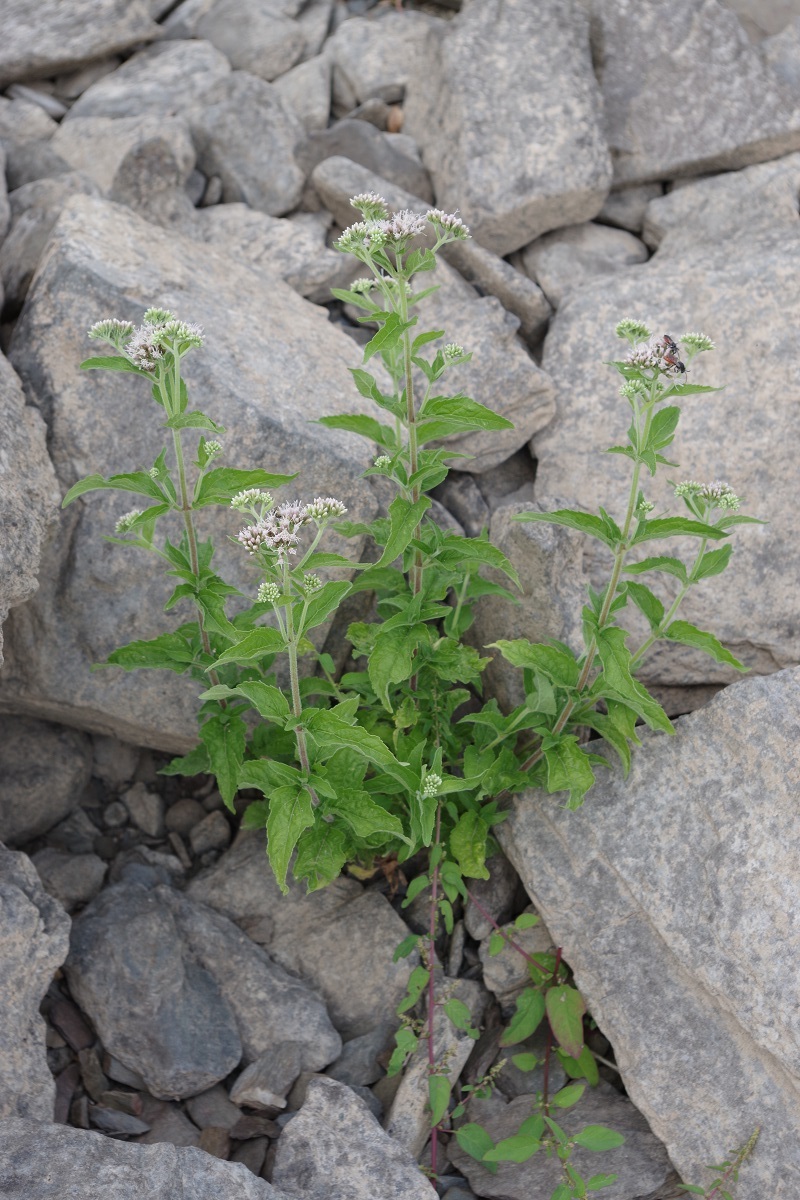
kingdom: Plantae
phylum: Tracheophyta
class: Magnoliopsida
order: Asterales
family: Asteraceae
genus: Eupatorium
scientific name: Eupatorium cannabinum
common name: Hemp-agrimony
